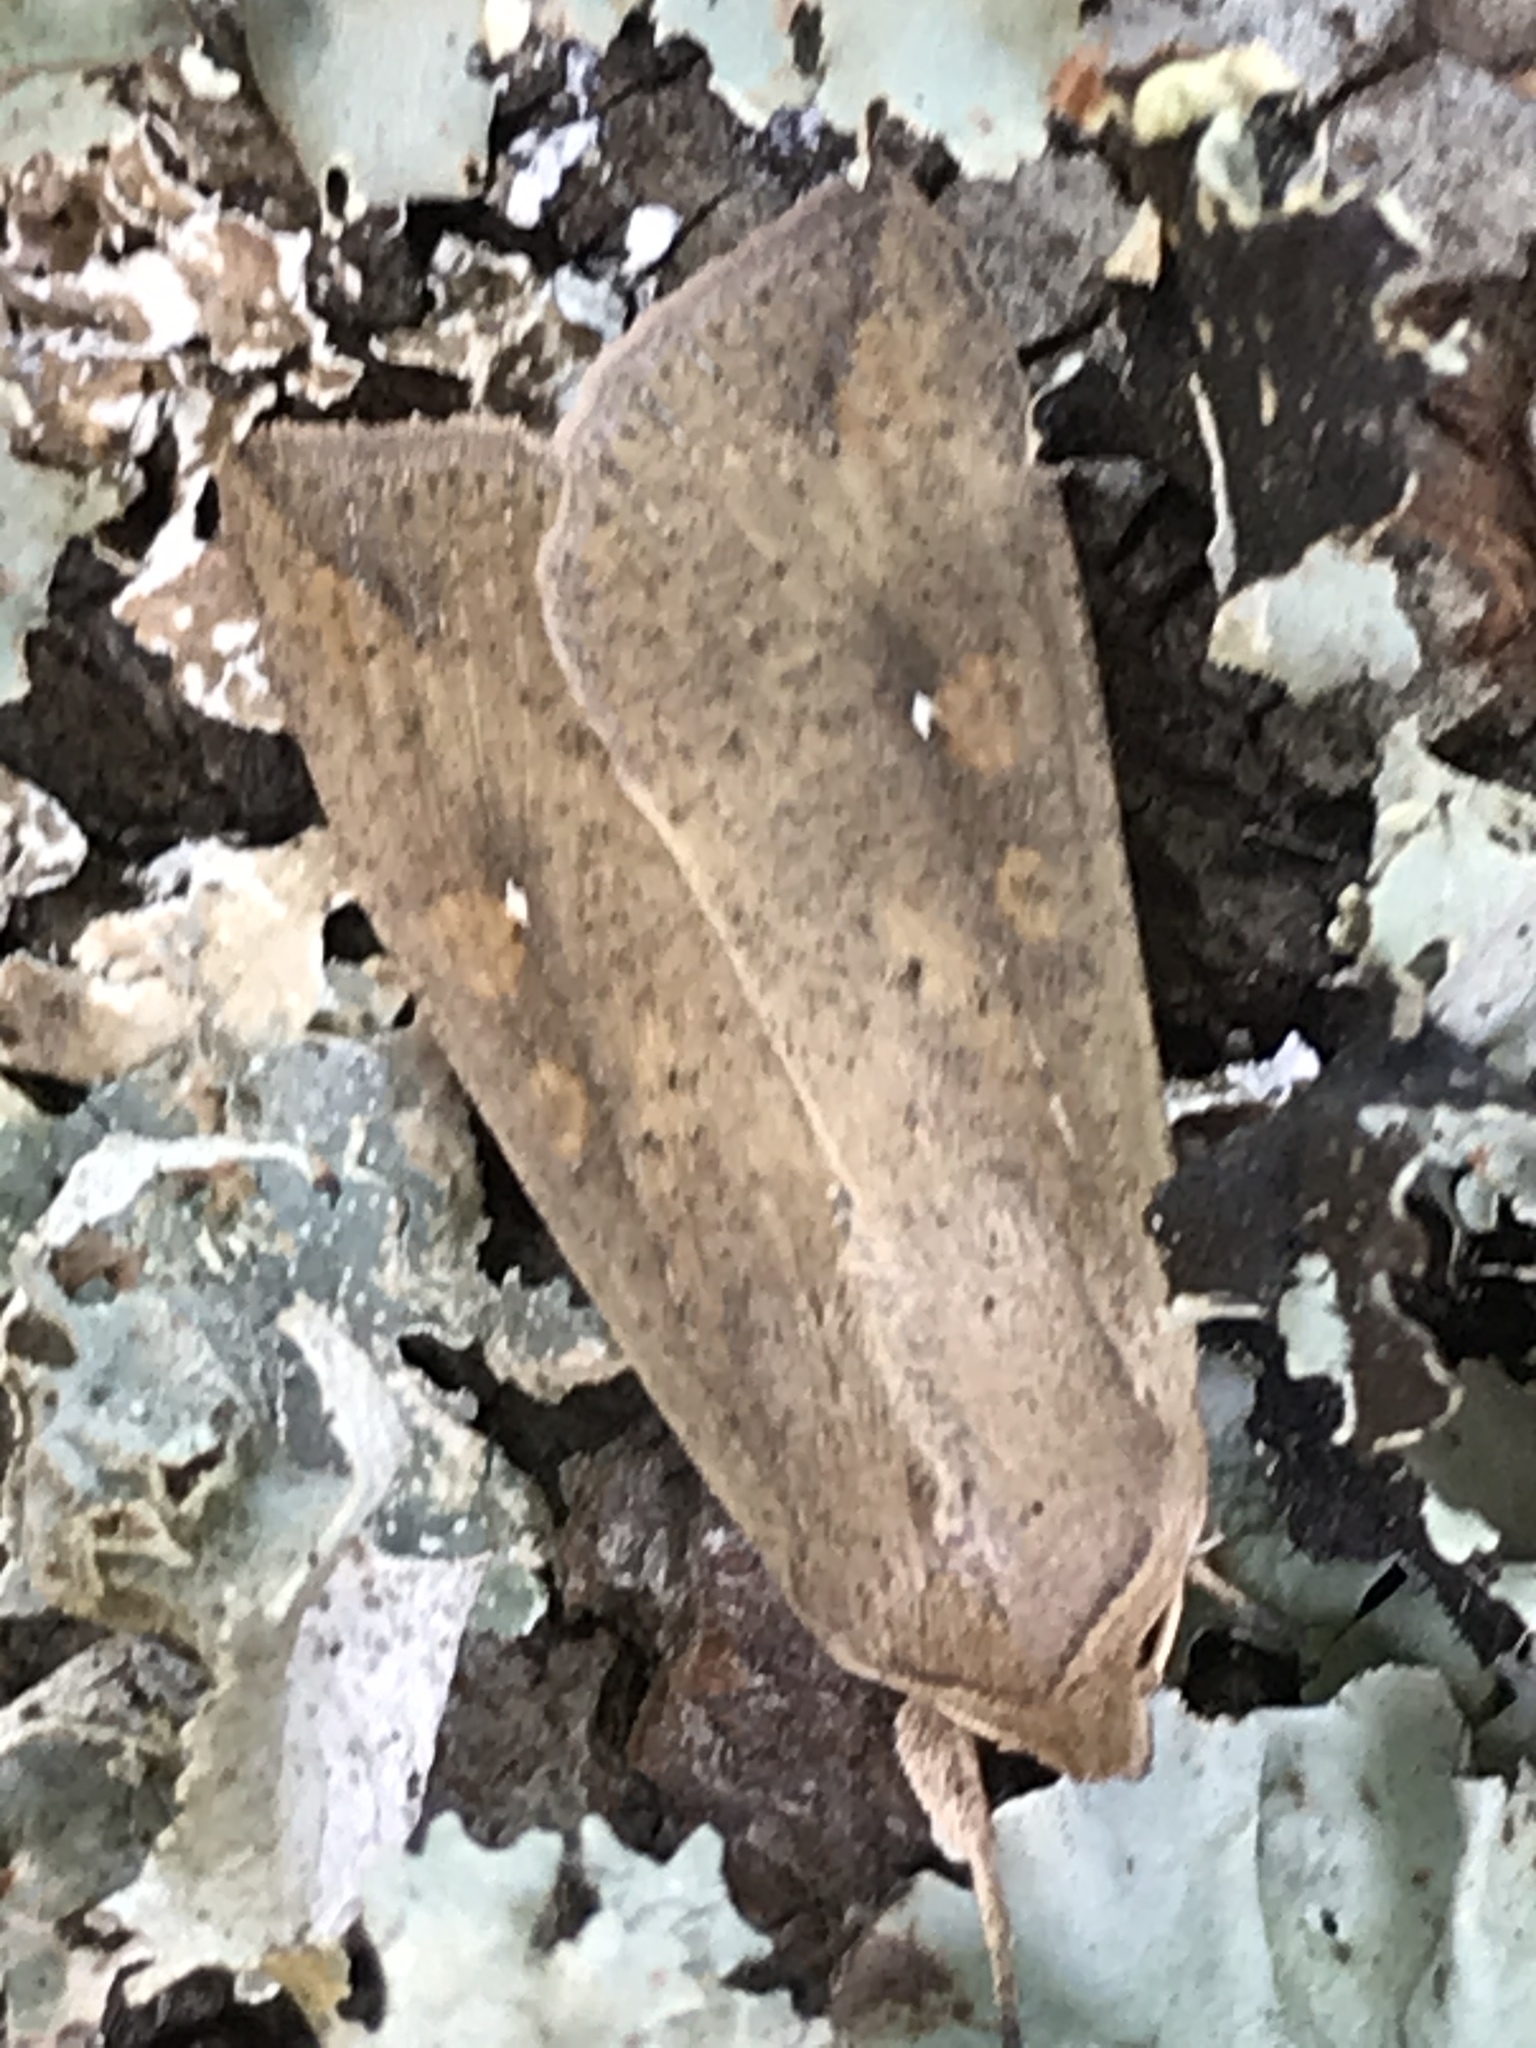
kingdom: Animalia
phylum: Arthropoda
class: Insecta
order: Lepidoptera
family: Noctuidae
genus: Mythimna
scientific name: Mythimna unipuncta
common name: White-speck
